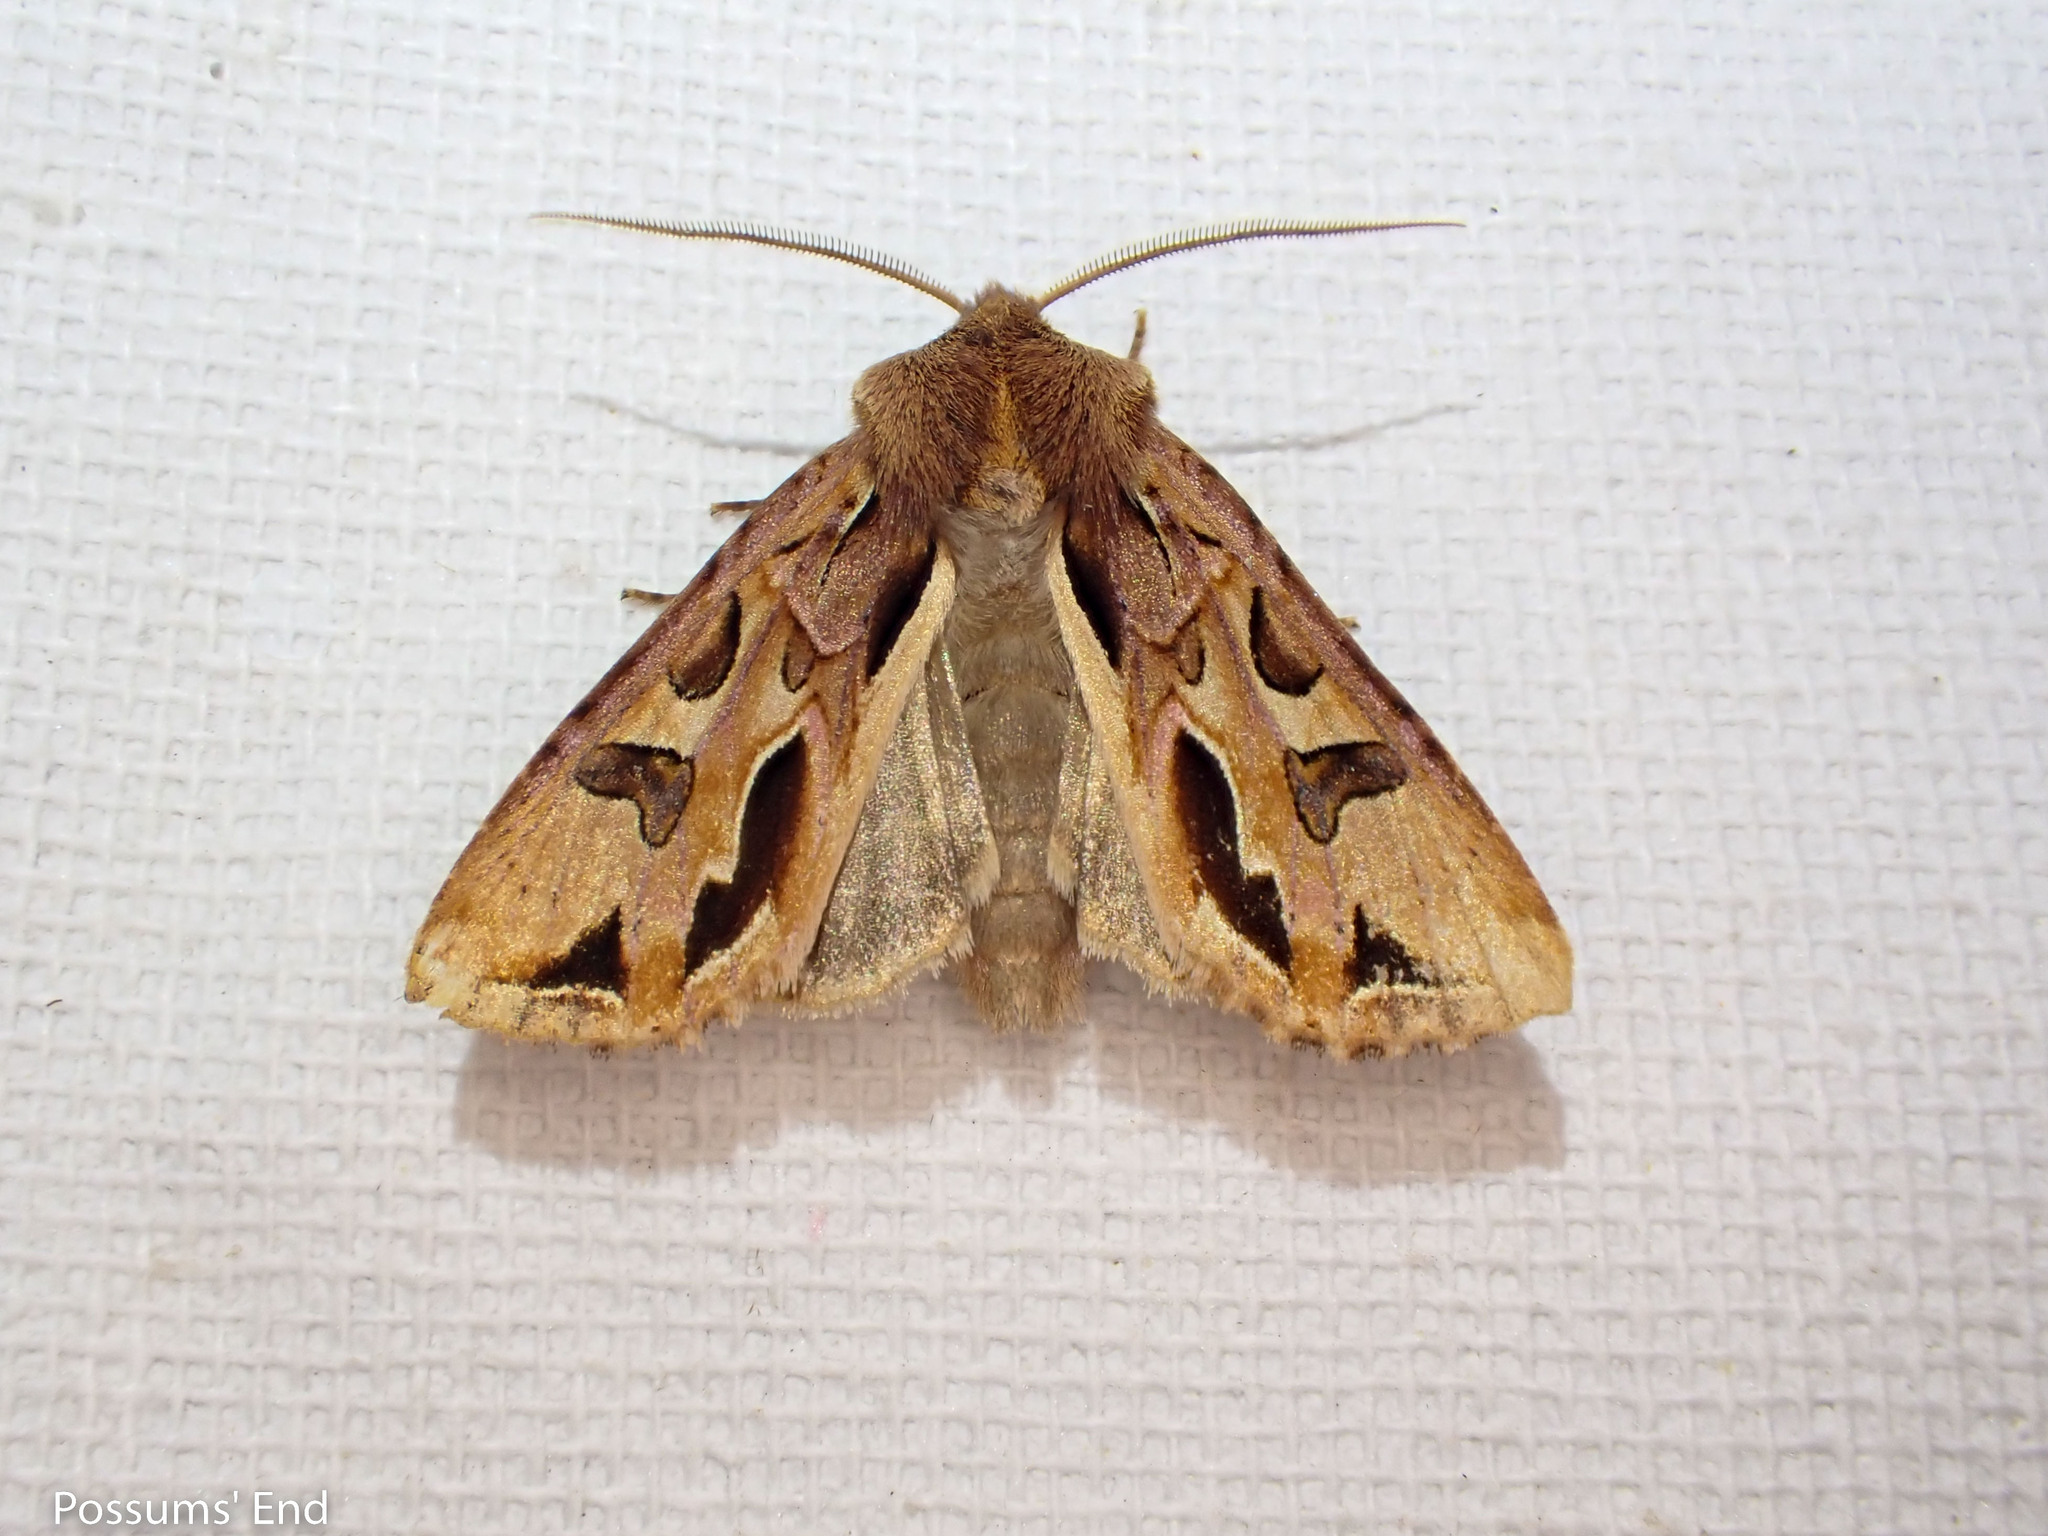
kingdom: Animalia
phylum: Arthropoda
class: Insecta
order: Lepidoptera
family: Noctuidae
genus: Ichneutica
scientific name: Ichneutica
